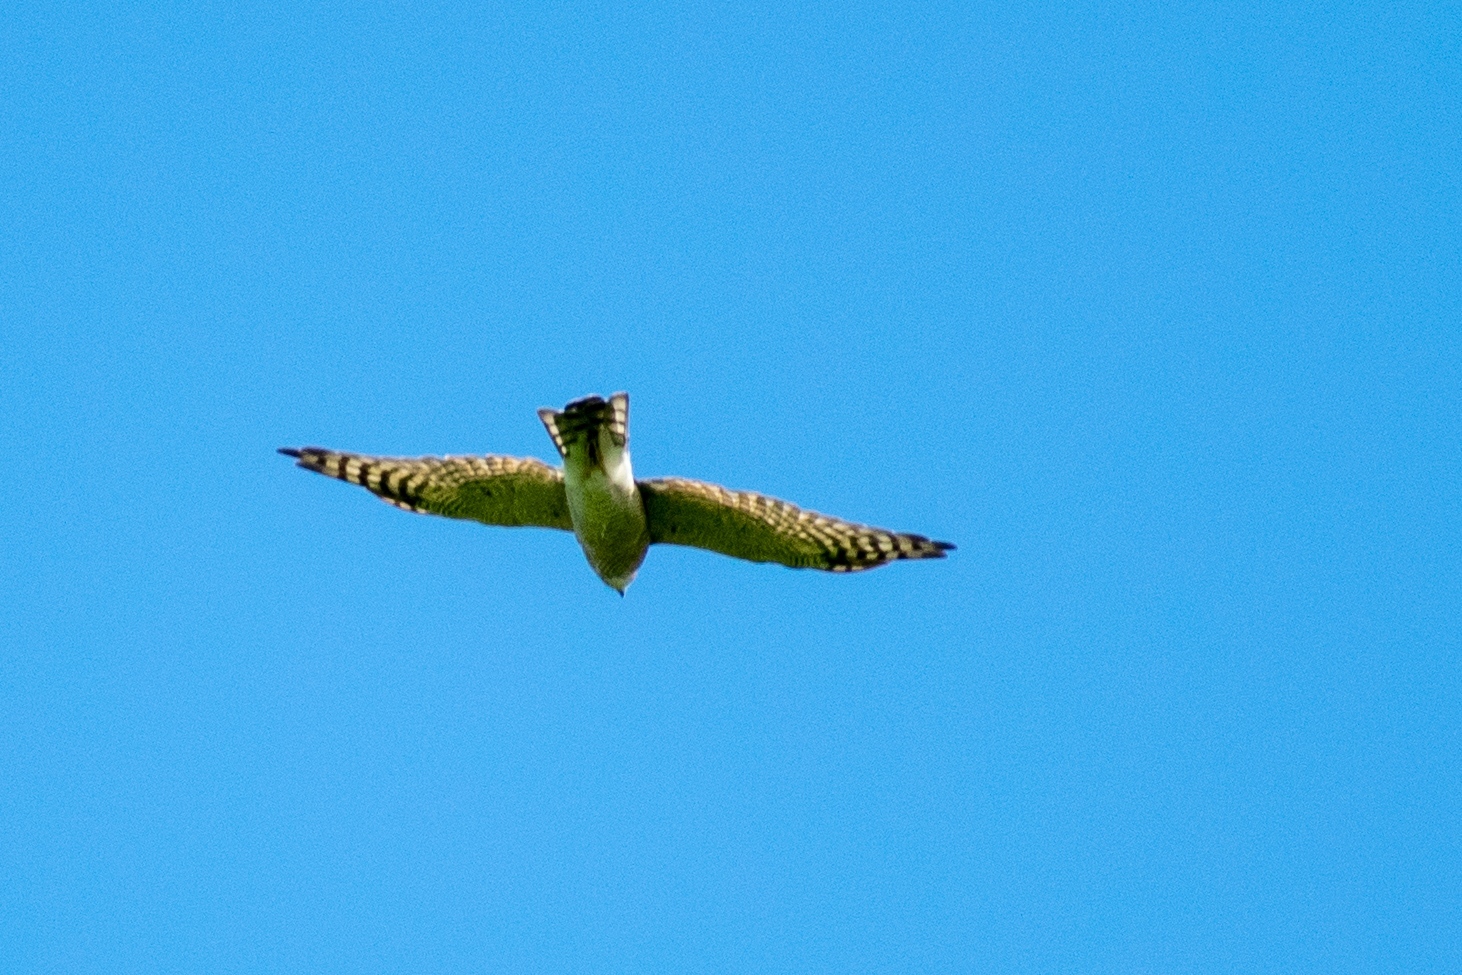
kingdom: Animalia
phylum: Chordata
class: Aves
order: Accipitriformes
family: Accipitridae
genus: Accipiter
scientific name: Accipiter nisus
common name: Eurasian sparrowhawk
